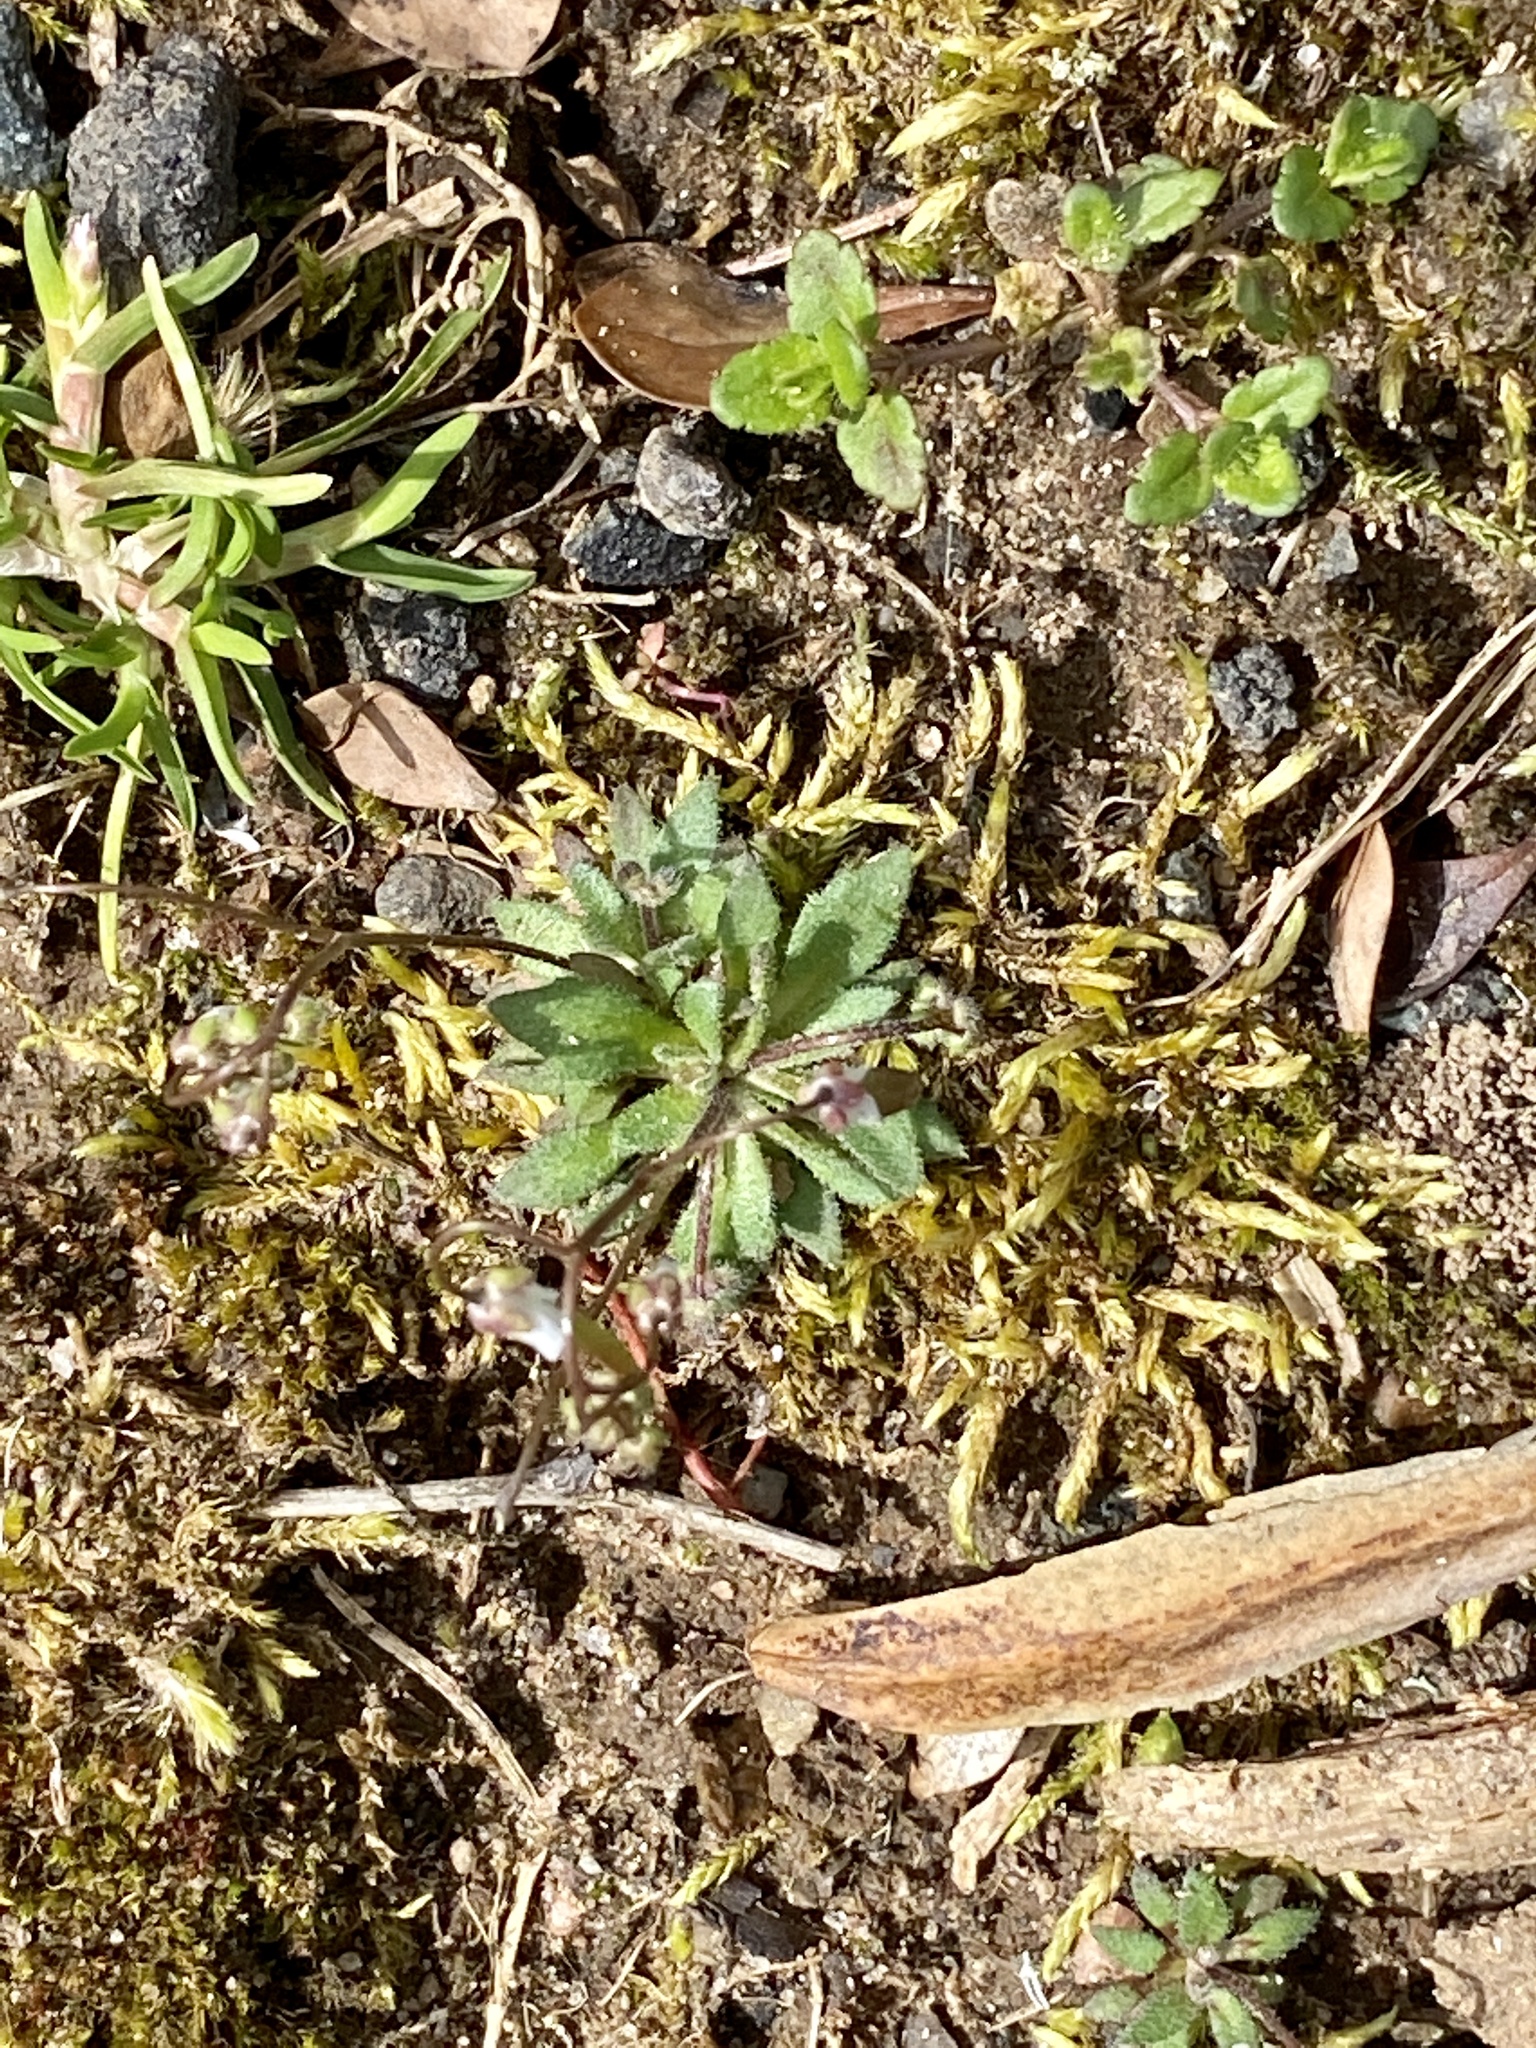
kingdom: Plantae
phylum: Tracheophyta
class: Magnoliopsida
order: Brassicales
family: Brassicaceae
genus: Draba
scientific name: Draba verna
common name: Spring draba
